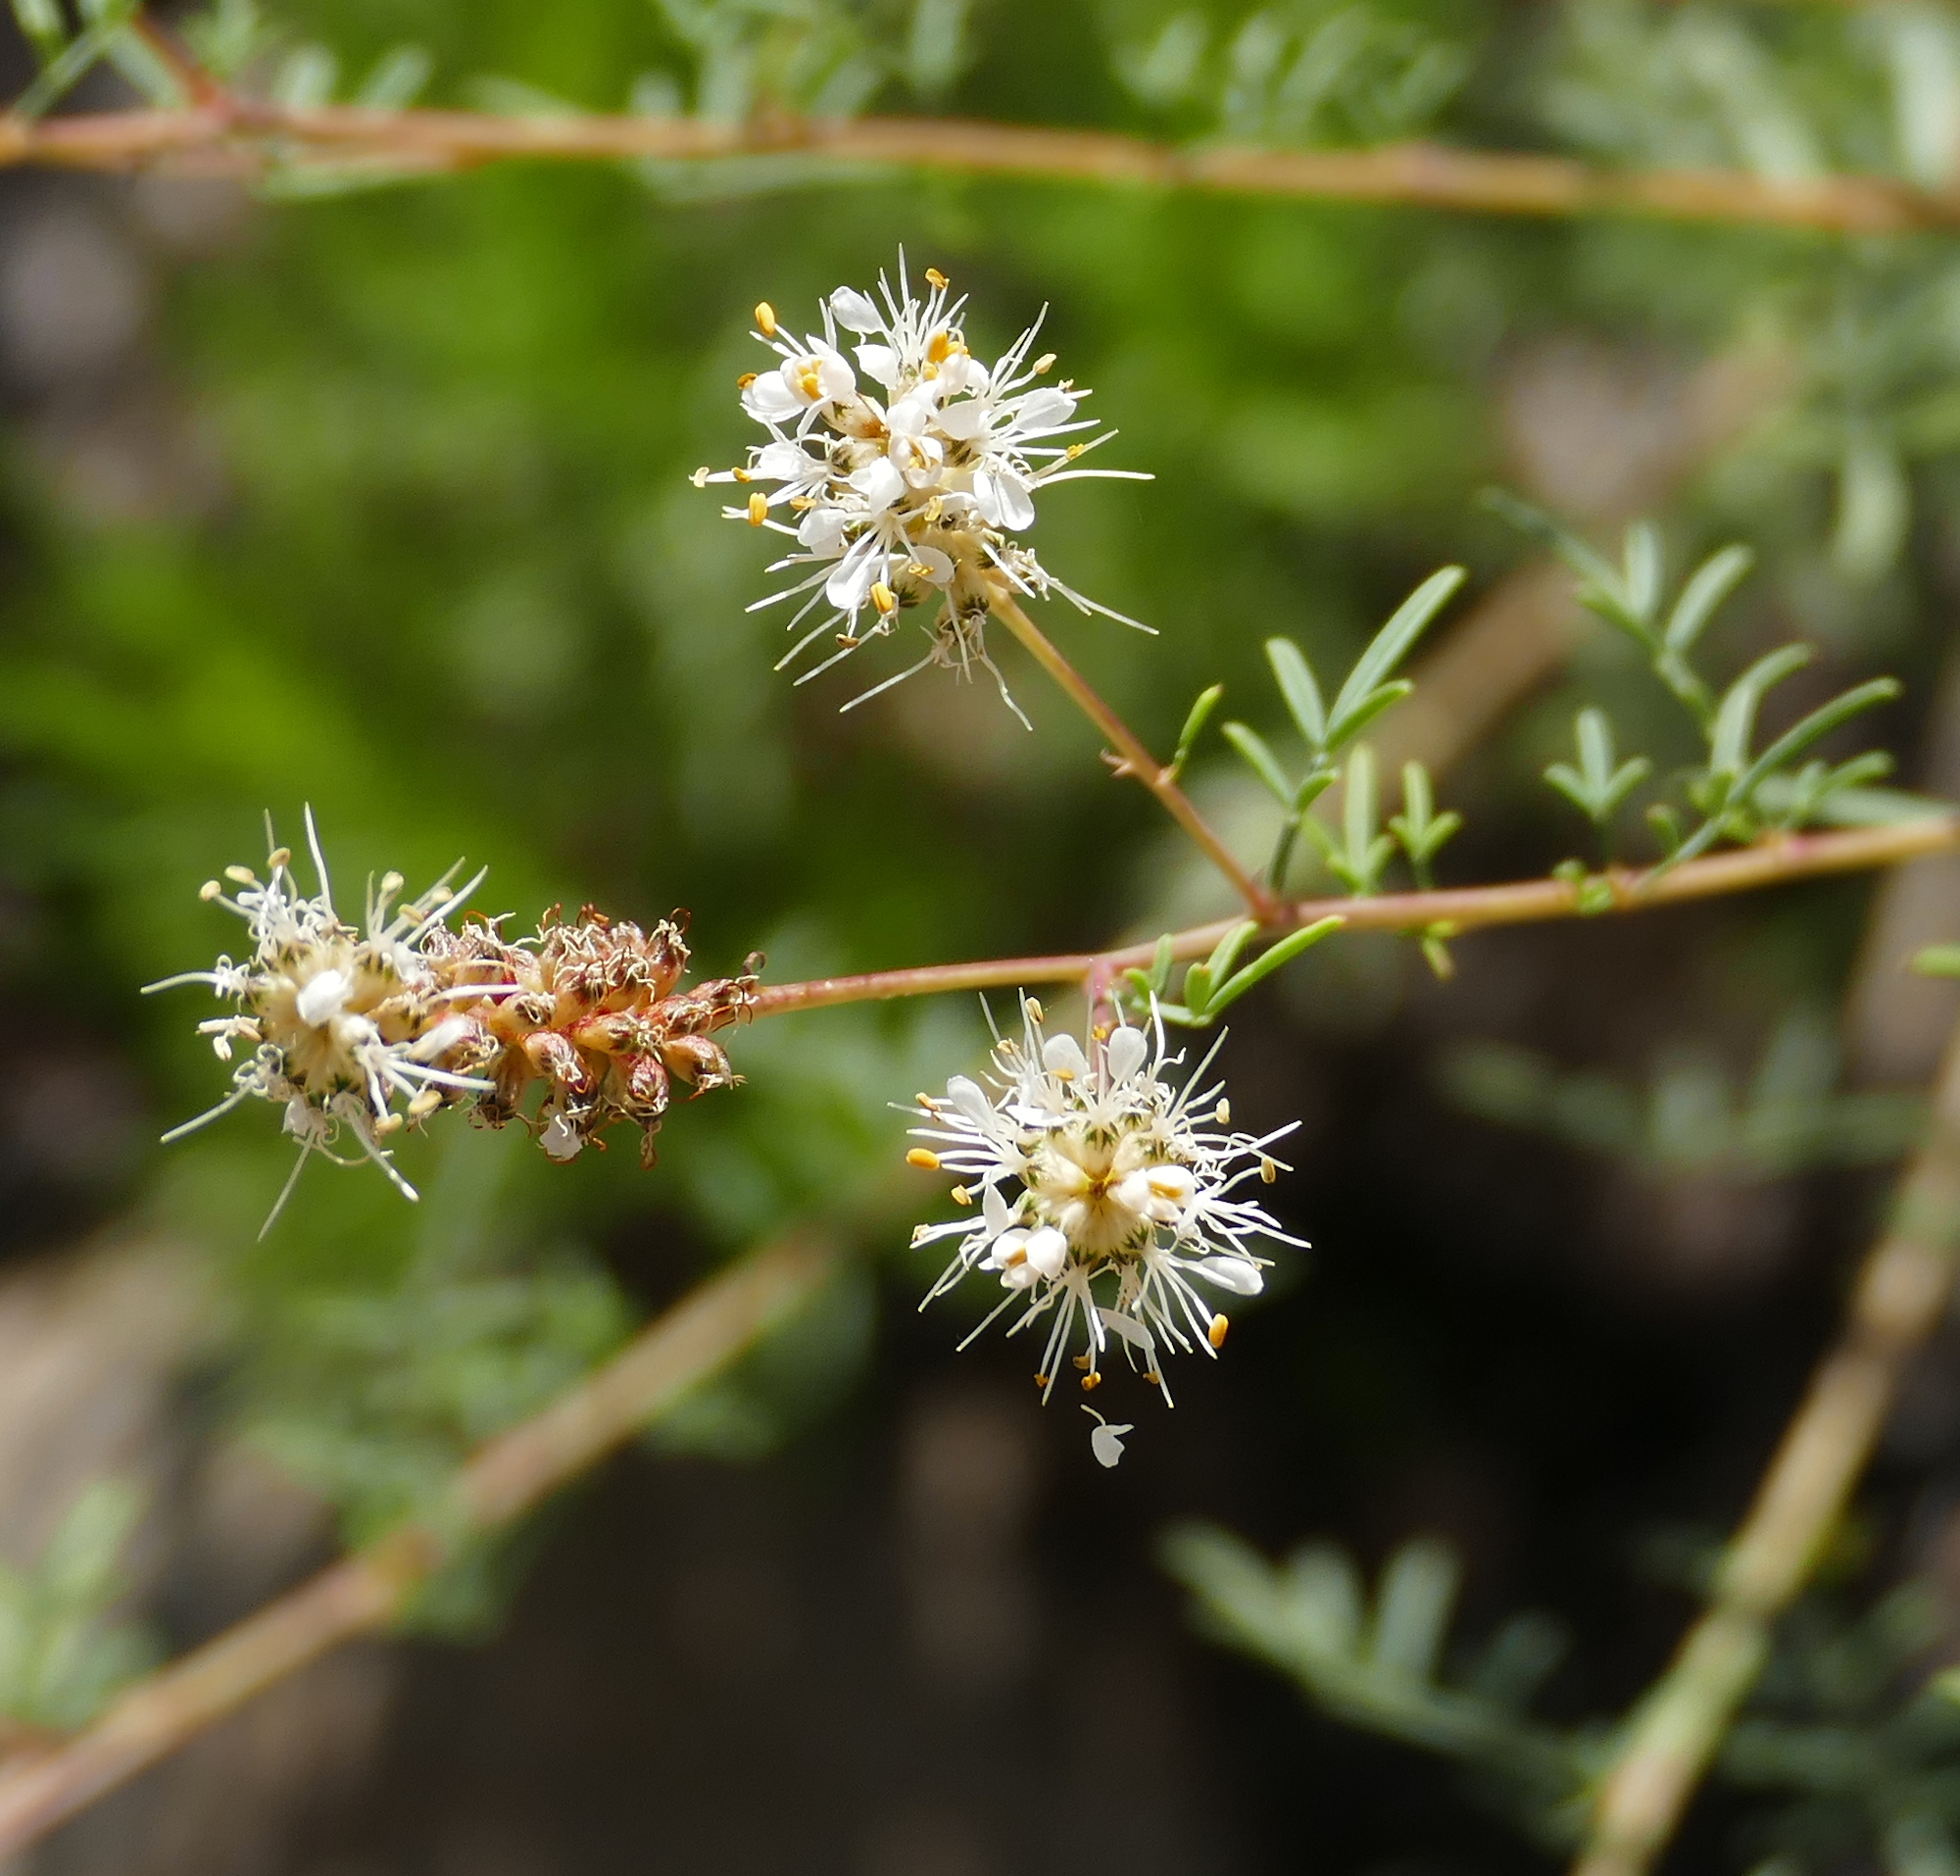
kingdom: Plantae
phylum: Tracheophyta
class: Magnoliopsida
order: Fabales
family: Fabaceae
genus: Dalea
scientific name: Dalea candida
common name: White prairie-clover
